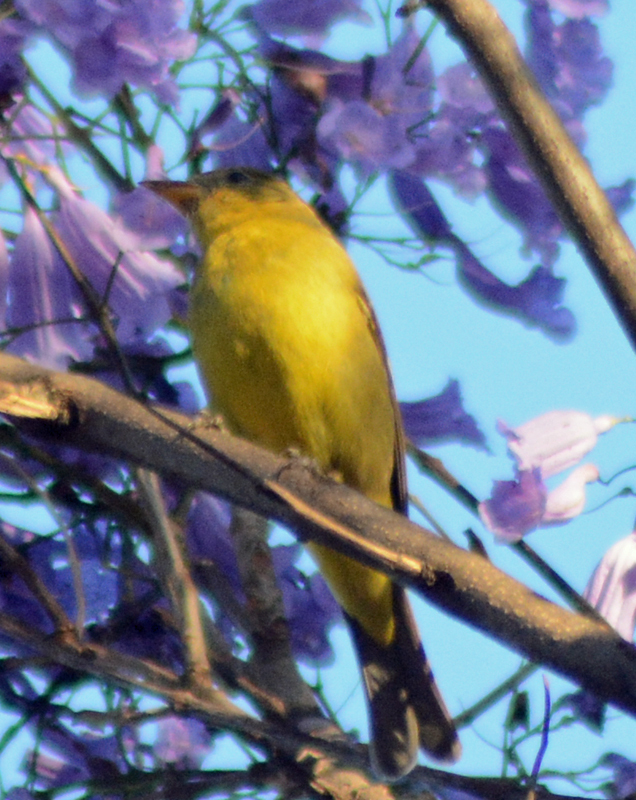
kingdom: Animalia
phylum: Chordata
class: Aves
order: Passeriformes
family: Cardinalidae
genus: Piranga
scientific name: Piranga ludoviciana
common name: Western tanager
